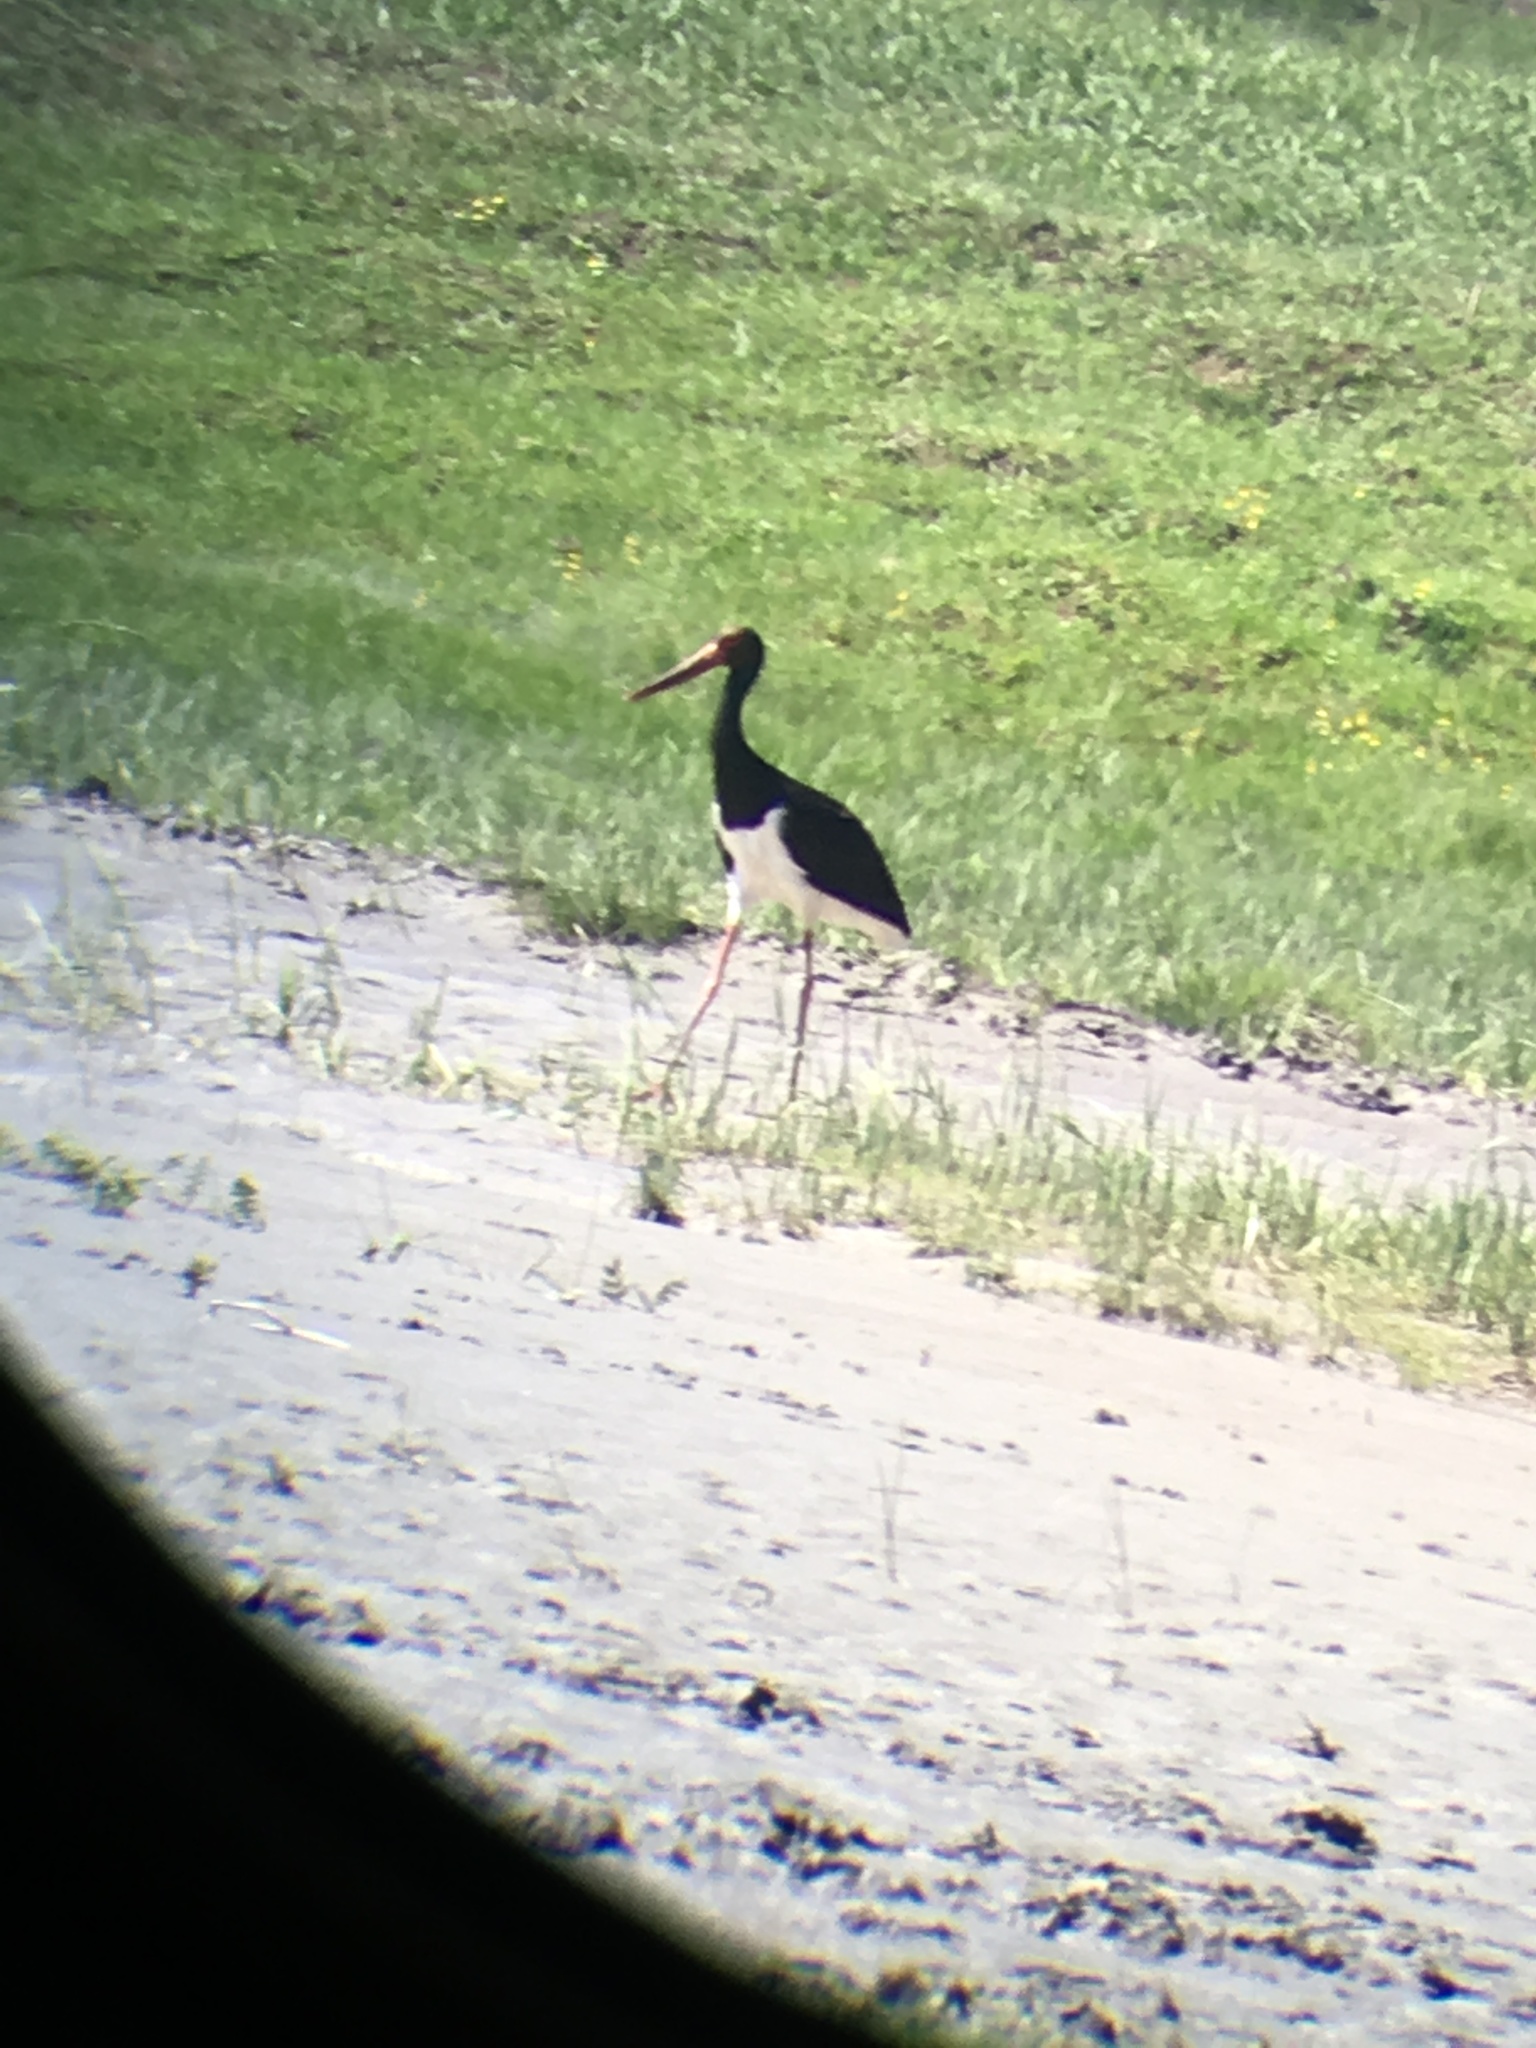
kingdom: Animalia
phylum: Chordata
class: Aves
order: Ciconiiformes
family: Ciconiidae
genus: Ciconia
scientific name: Ciconia nigra
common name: Black stork
